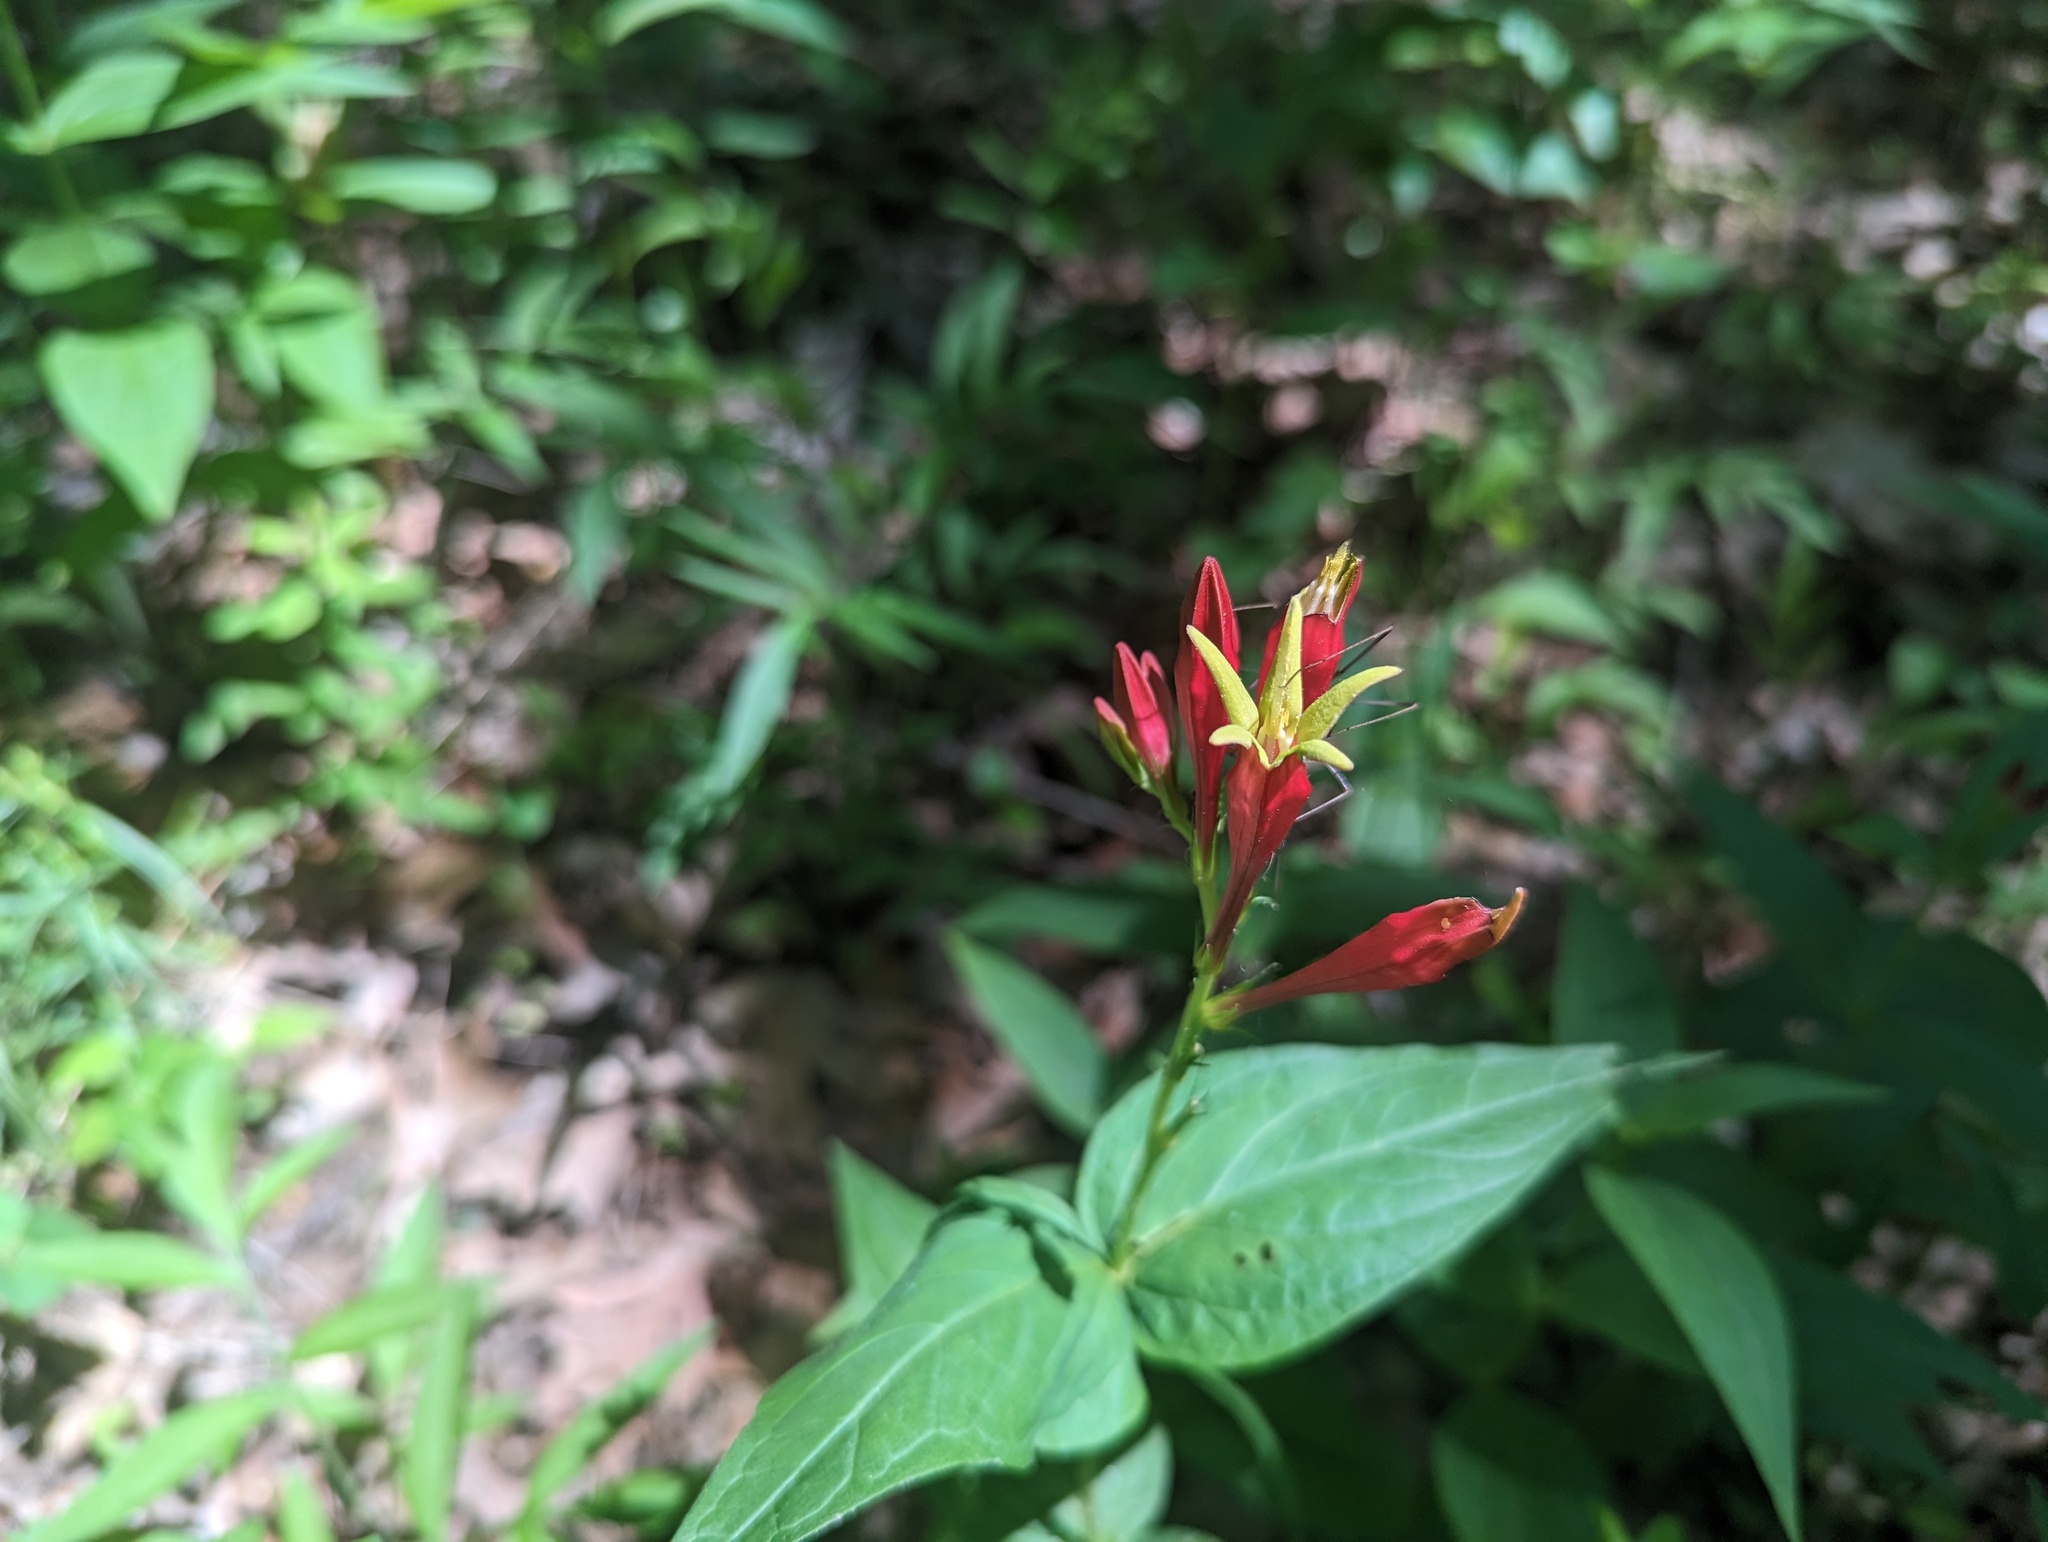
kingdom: Plantae
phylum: Tracheophyta
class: Magnoliopsida
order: Gentianales
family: Loganiaceae
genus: Spigelia
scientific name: Spigelia marilandica
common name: Indian-pink
